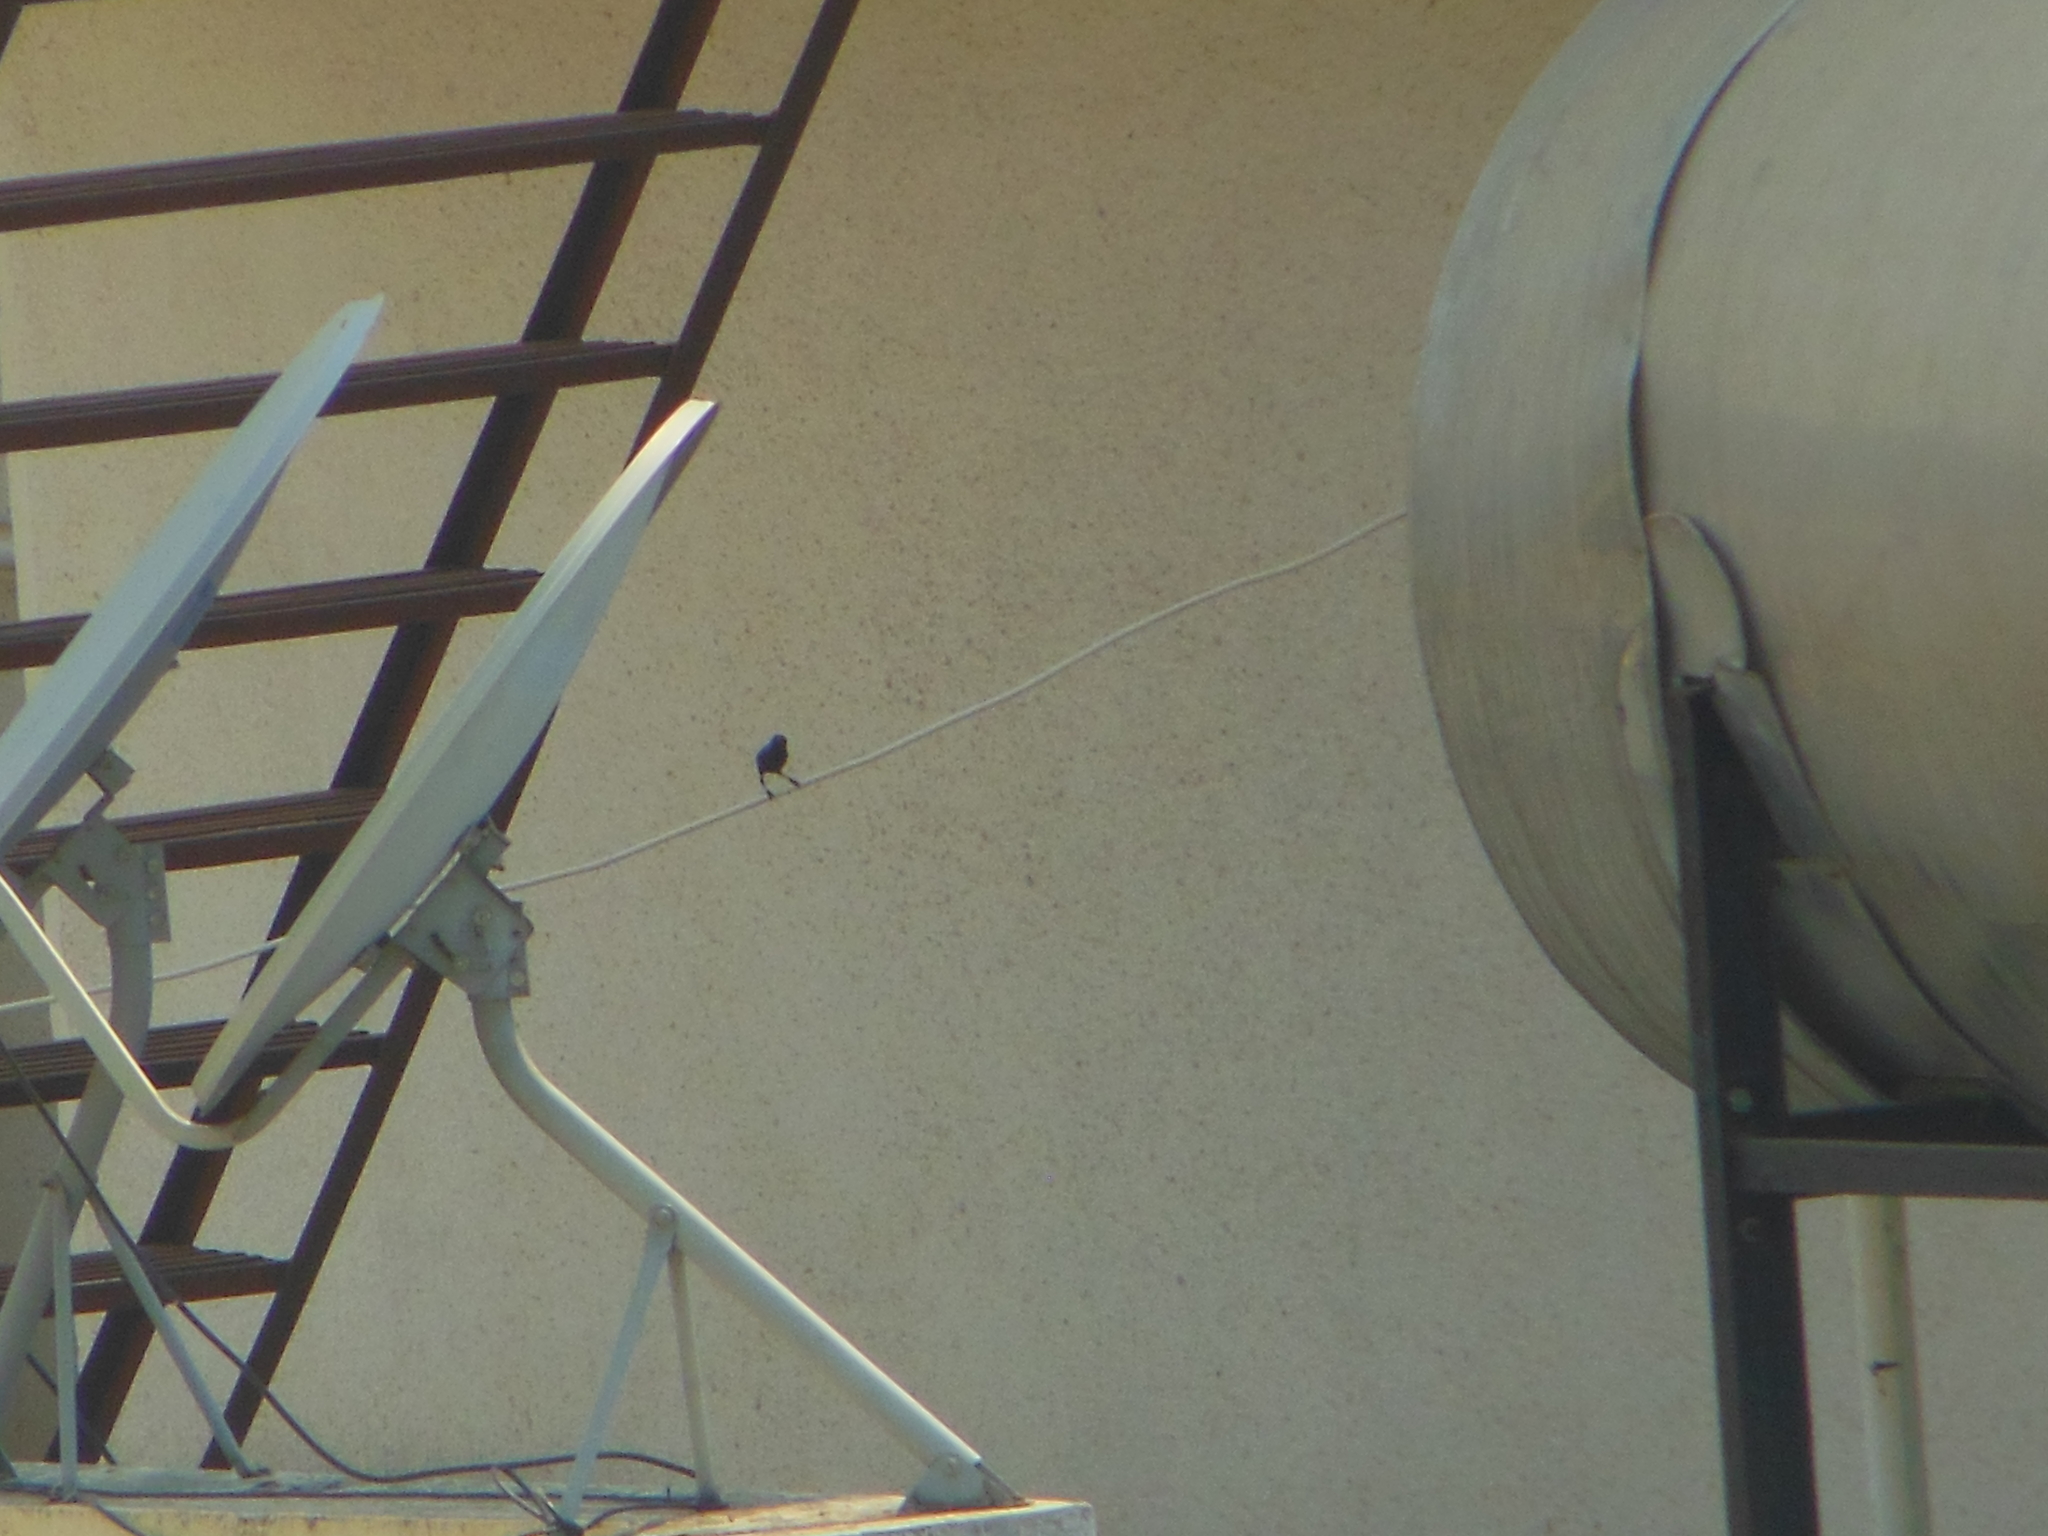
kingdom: Animalia
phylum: Chordata
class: Aves
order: Passeriformes
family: Nectariniidae
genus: Cinnyris
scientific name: Cinnyris asiaticus
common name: Purple sunbird
